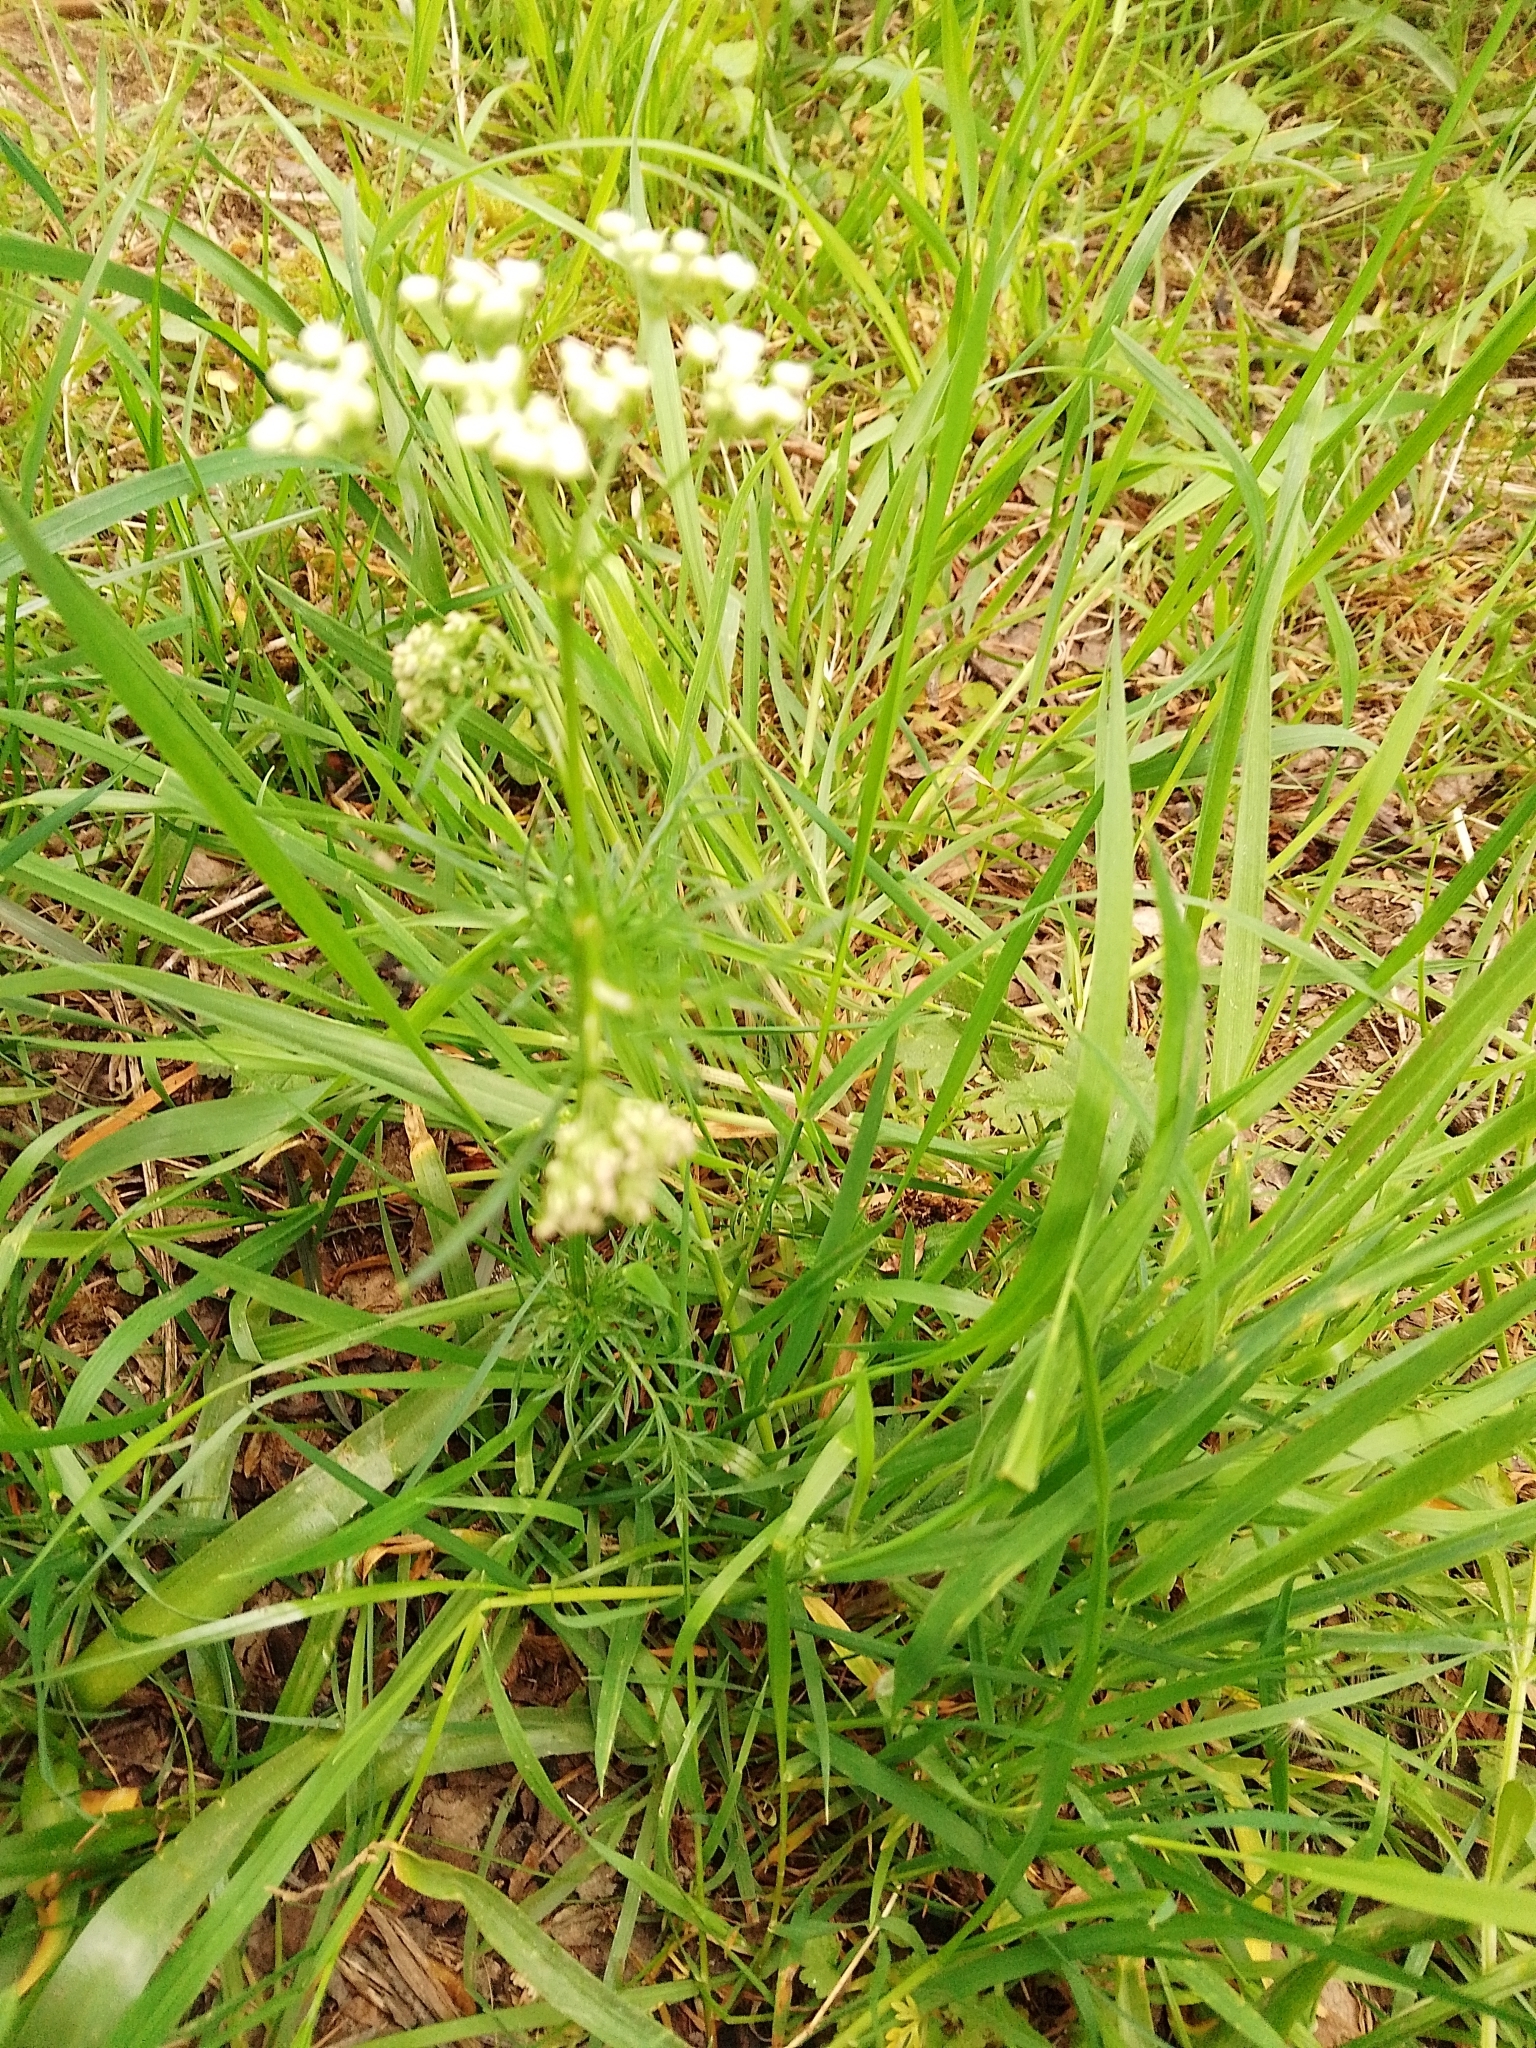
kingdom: Plantae
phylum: Tracheophyta
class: Magnoliopsida
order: Apiales
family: Apiaceae
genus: Conopodium
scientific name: Conopodium majus
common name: Pignut
